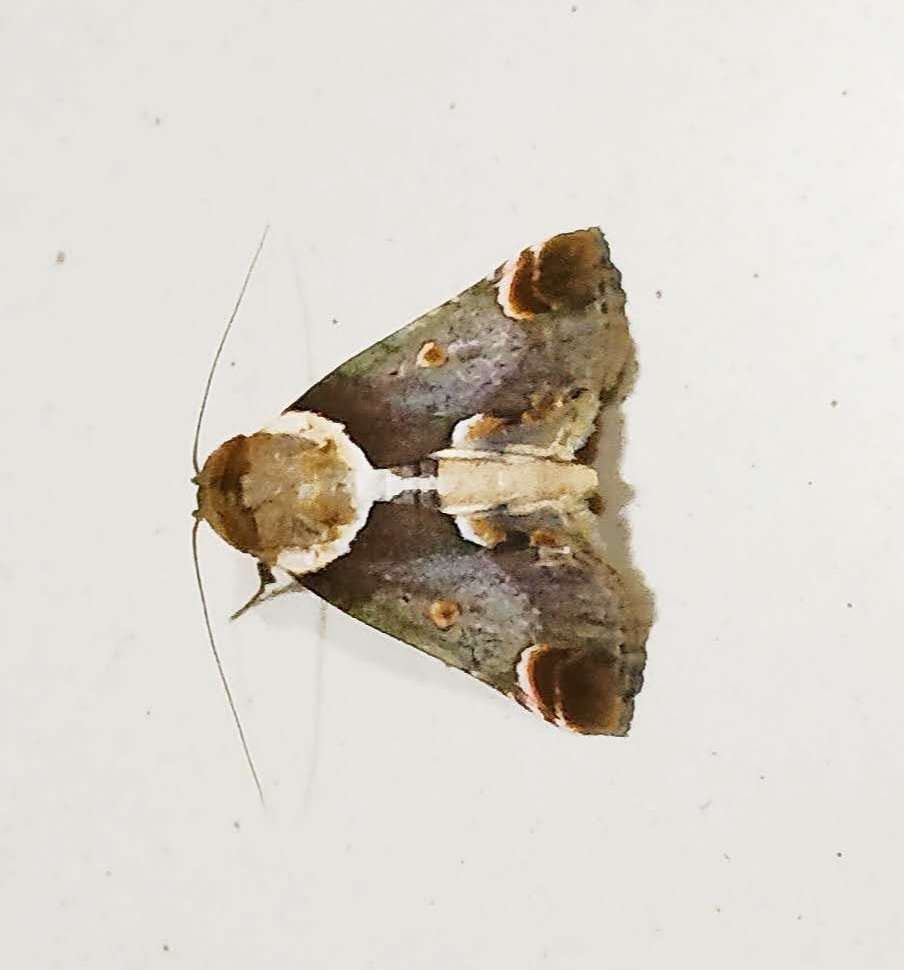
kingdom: Animalia
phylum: Arthropoda
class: Insecta
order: Lepidoptera
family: Nolidae
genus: Risoba
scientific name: Risoba repugnans
